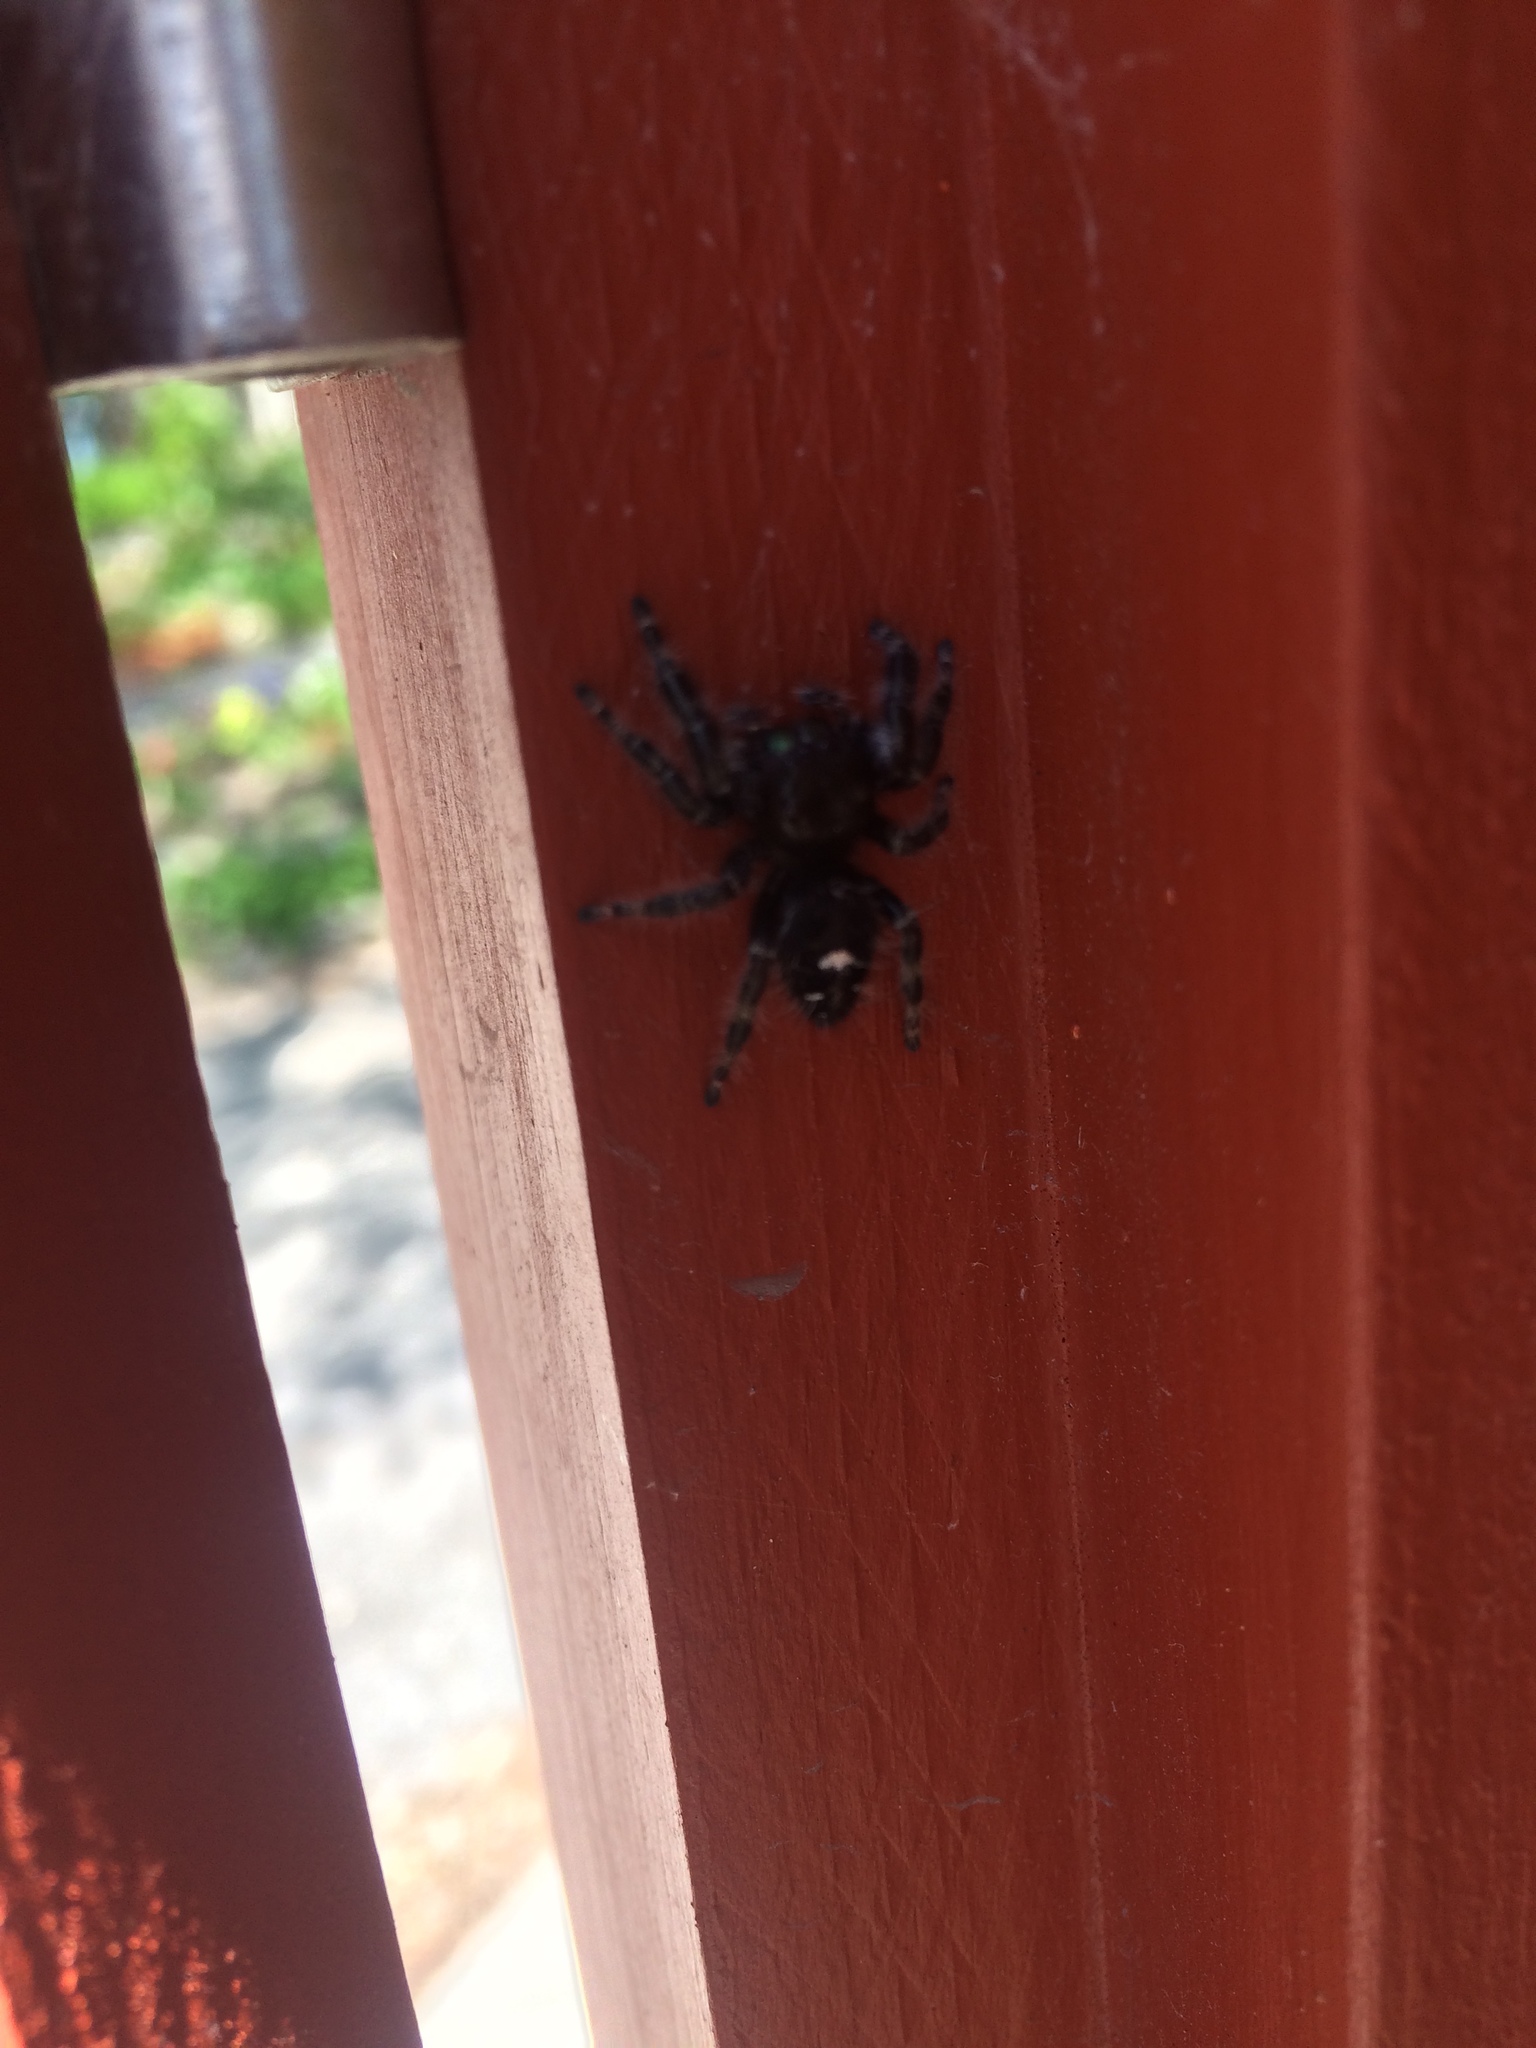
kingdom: Animalia
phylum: Arthropoda
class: Arachnida
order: Araneae
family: Salticidae
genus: Phidippus
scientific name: Phidippus audax
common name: Bold jumper
